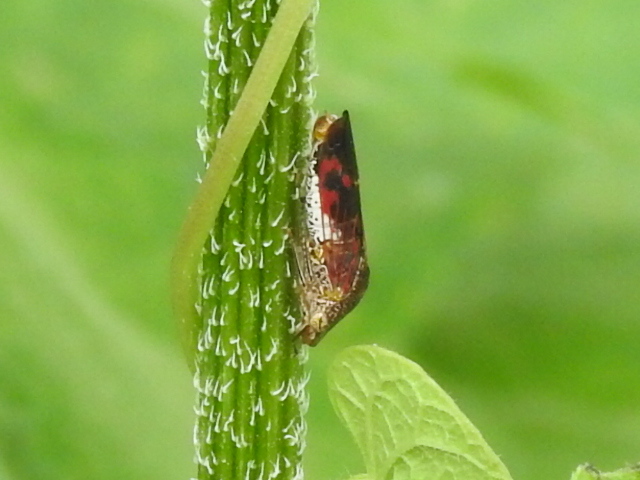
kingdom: Animalia
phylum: Arthropoda
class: Insecta
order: Hemiptera
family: Cicadellidae
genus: Homalodisca
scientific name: Homalodisca vitripennis
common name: Glassy-winged sharpshooter
